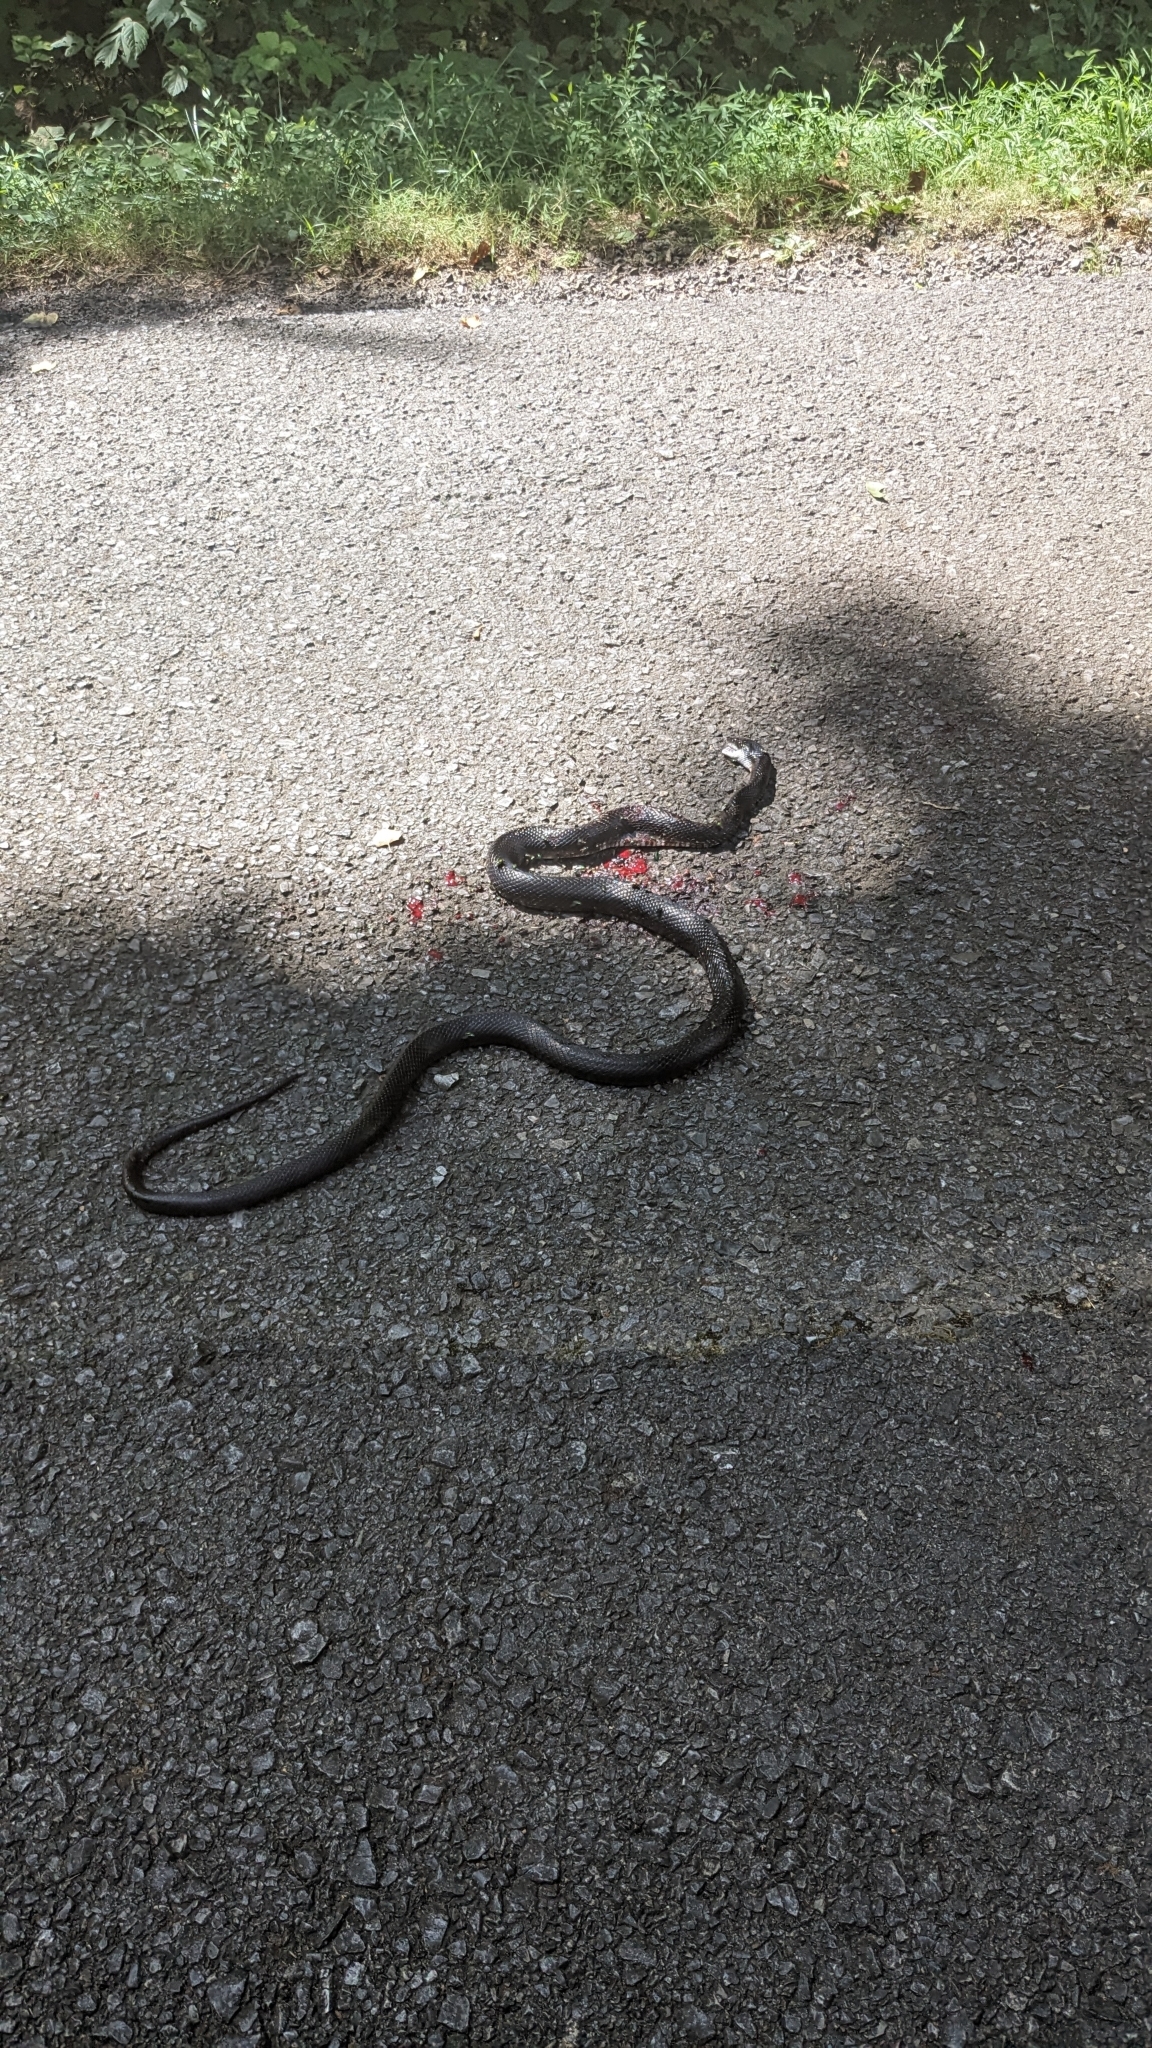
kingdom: Animalia
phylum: Chordata
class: Squamata
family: Colubridae
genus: Pantherophis
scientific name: Pantherophis spiloides
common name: Gray rat snake
